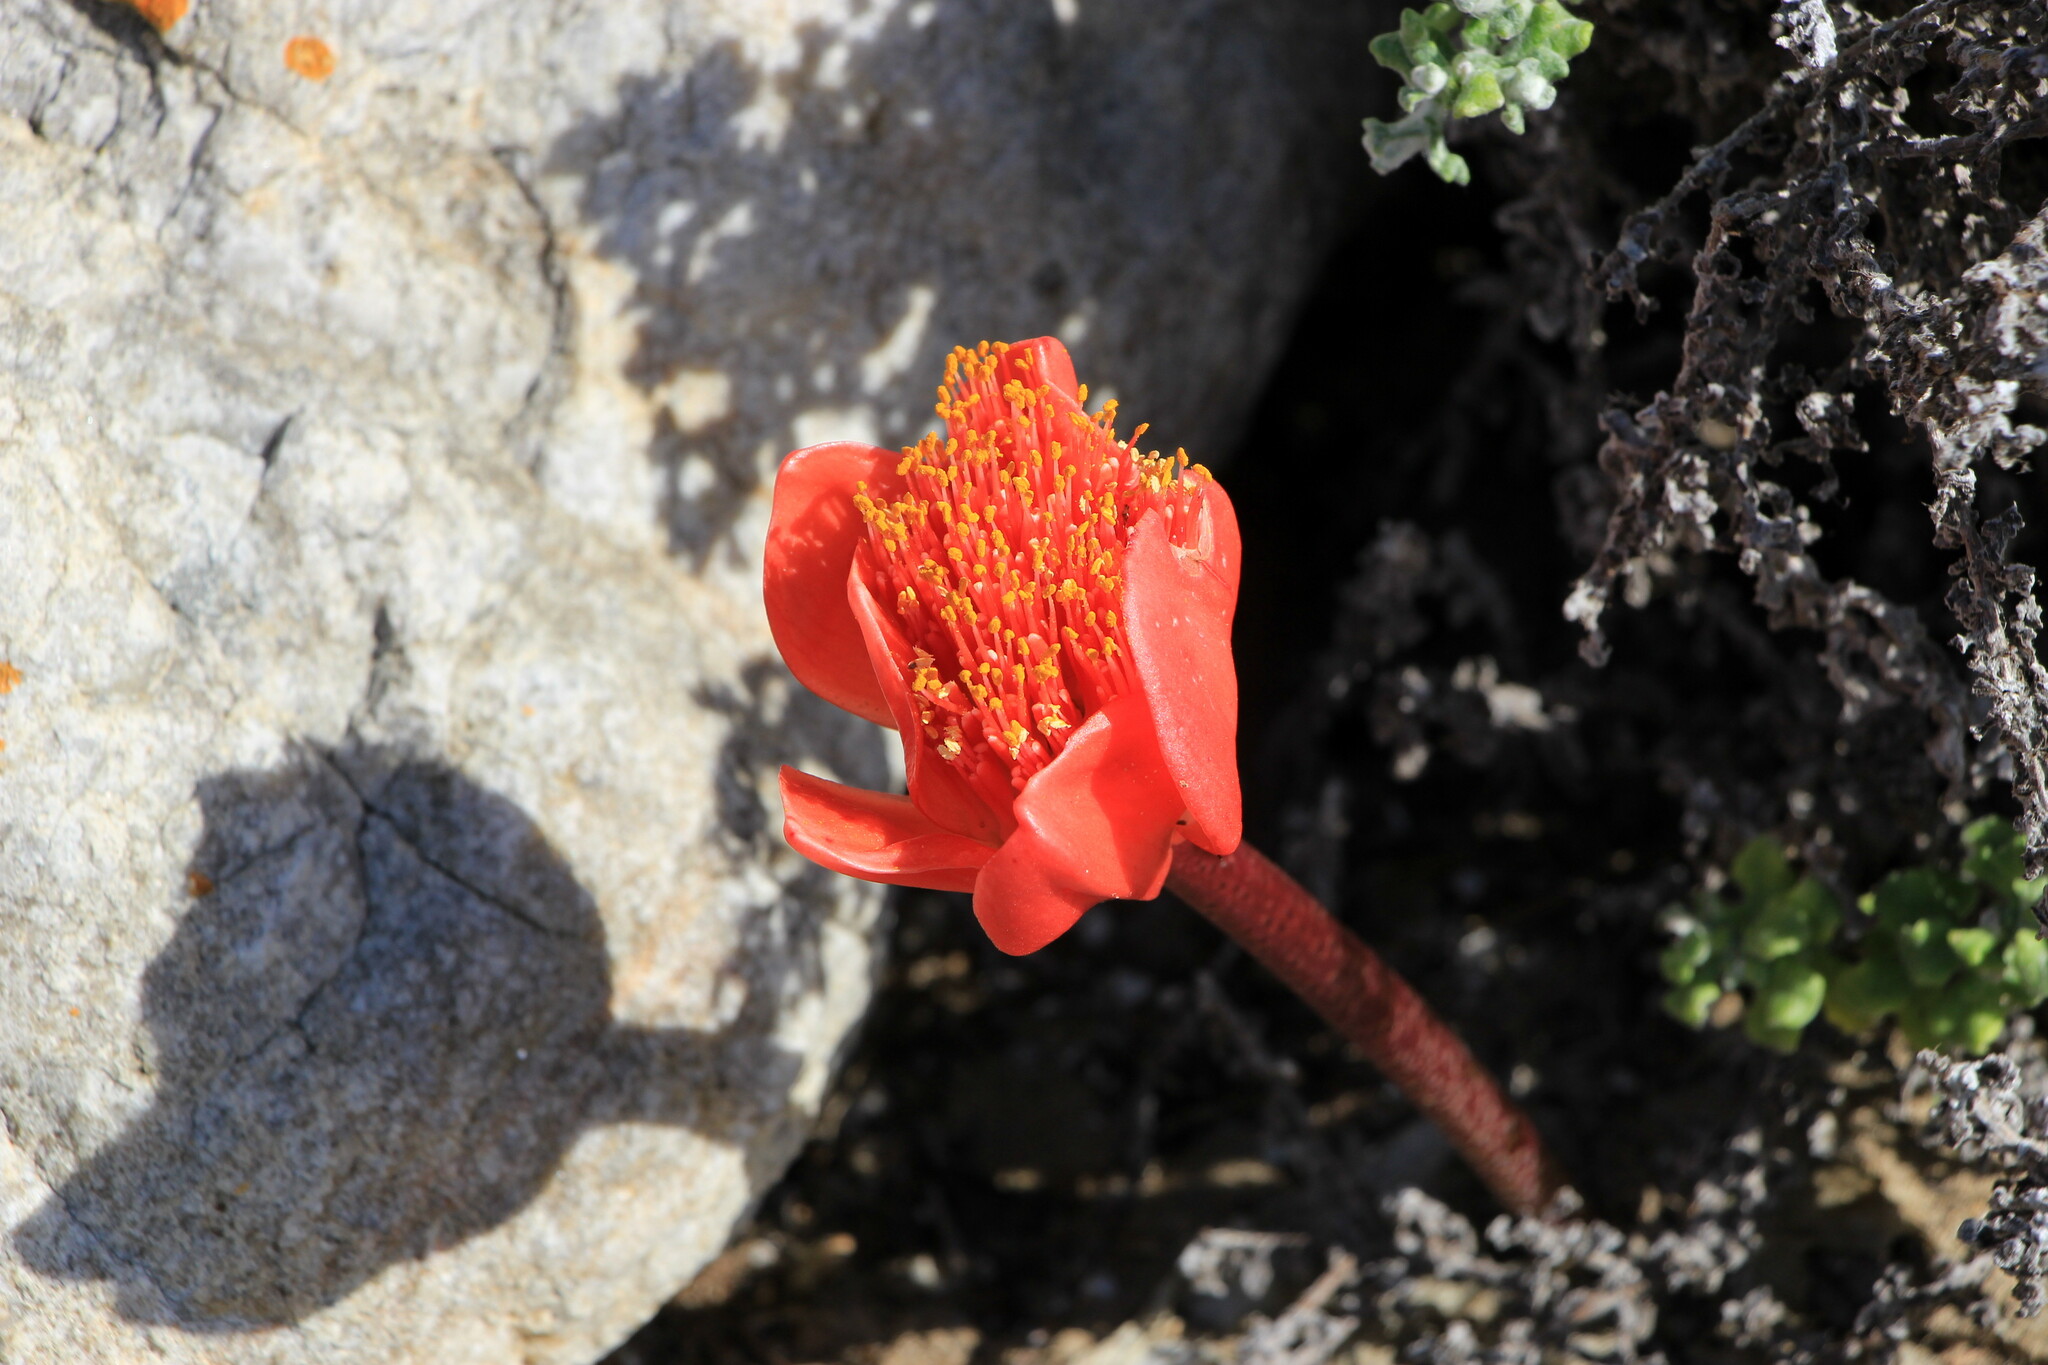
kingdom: Plantae
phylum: Tracheophyta
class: Liliopsida
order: Asparagales
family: Amaryllidaceae
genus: Haemanthus
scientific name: Haemanthus coccineus
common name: Cape-tulip
